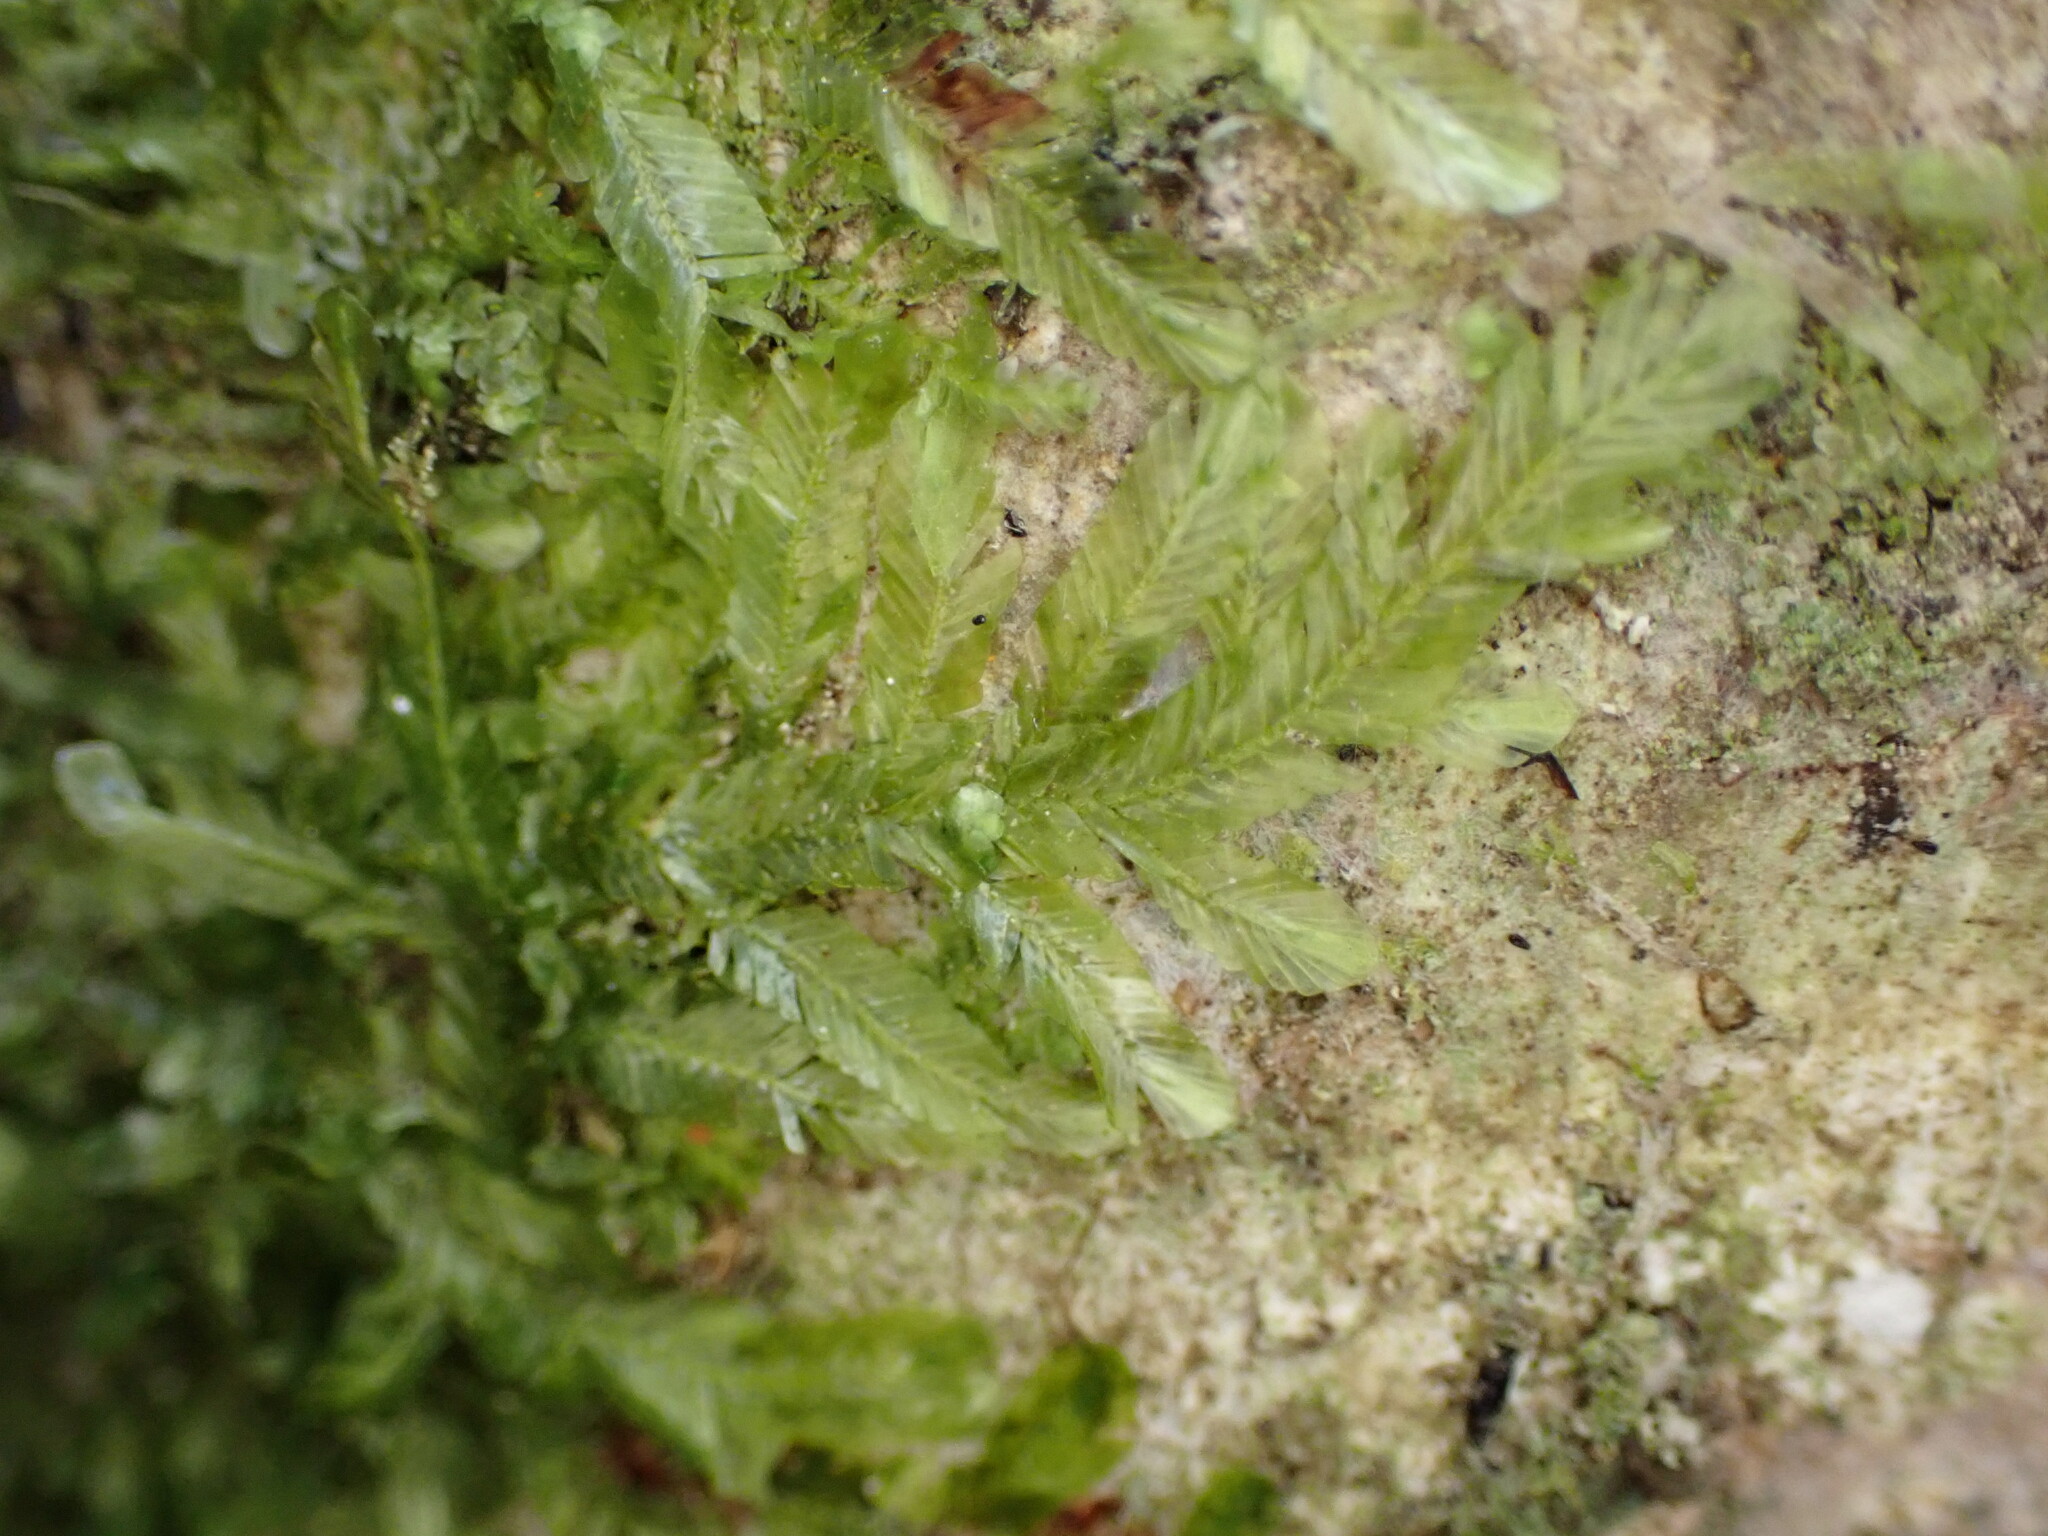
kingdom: Plantae
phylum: Bryophyta
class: Bryopsida
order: Ptychomniales
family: Orthorrhynchiaceae
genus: Orthorrhynchium
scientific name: Orthorrhynchium elegans
